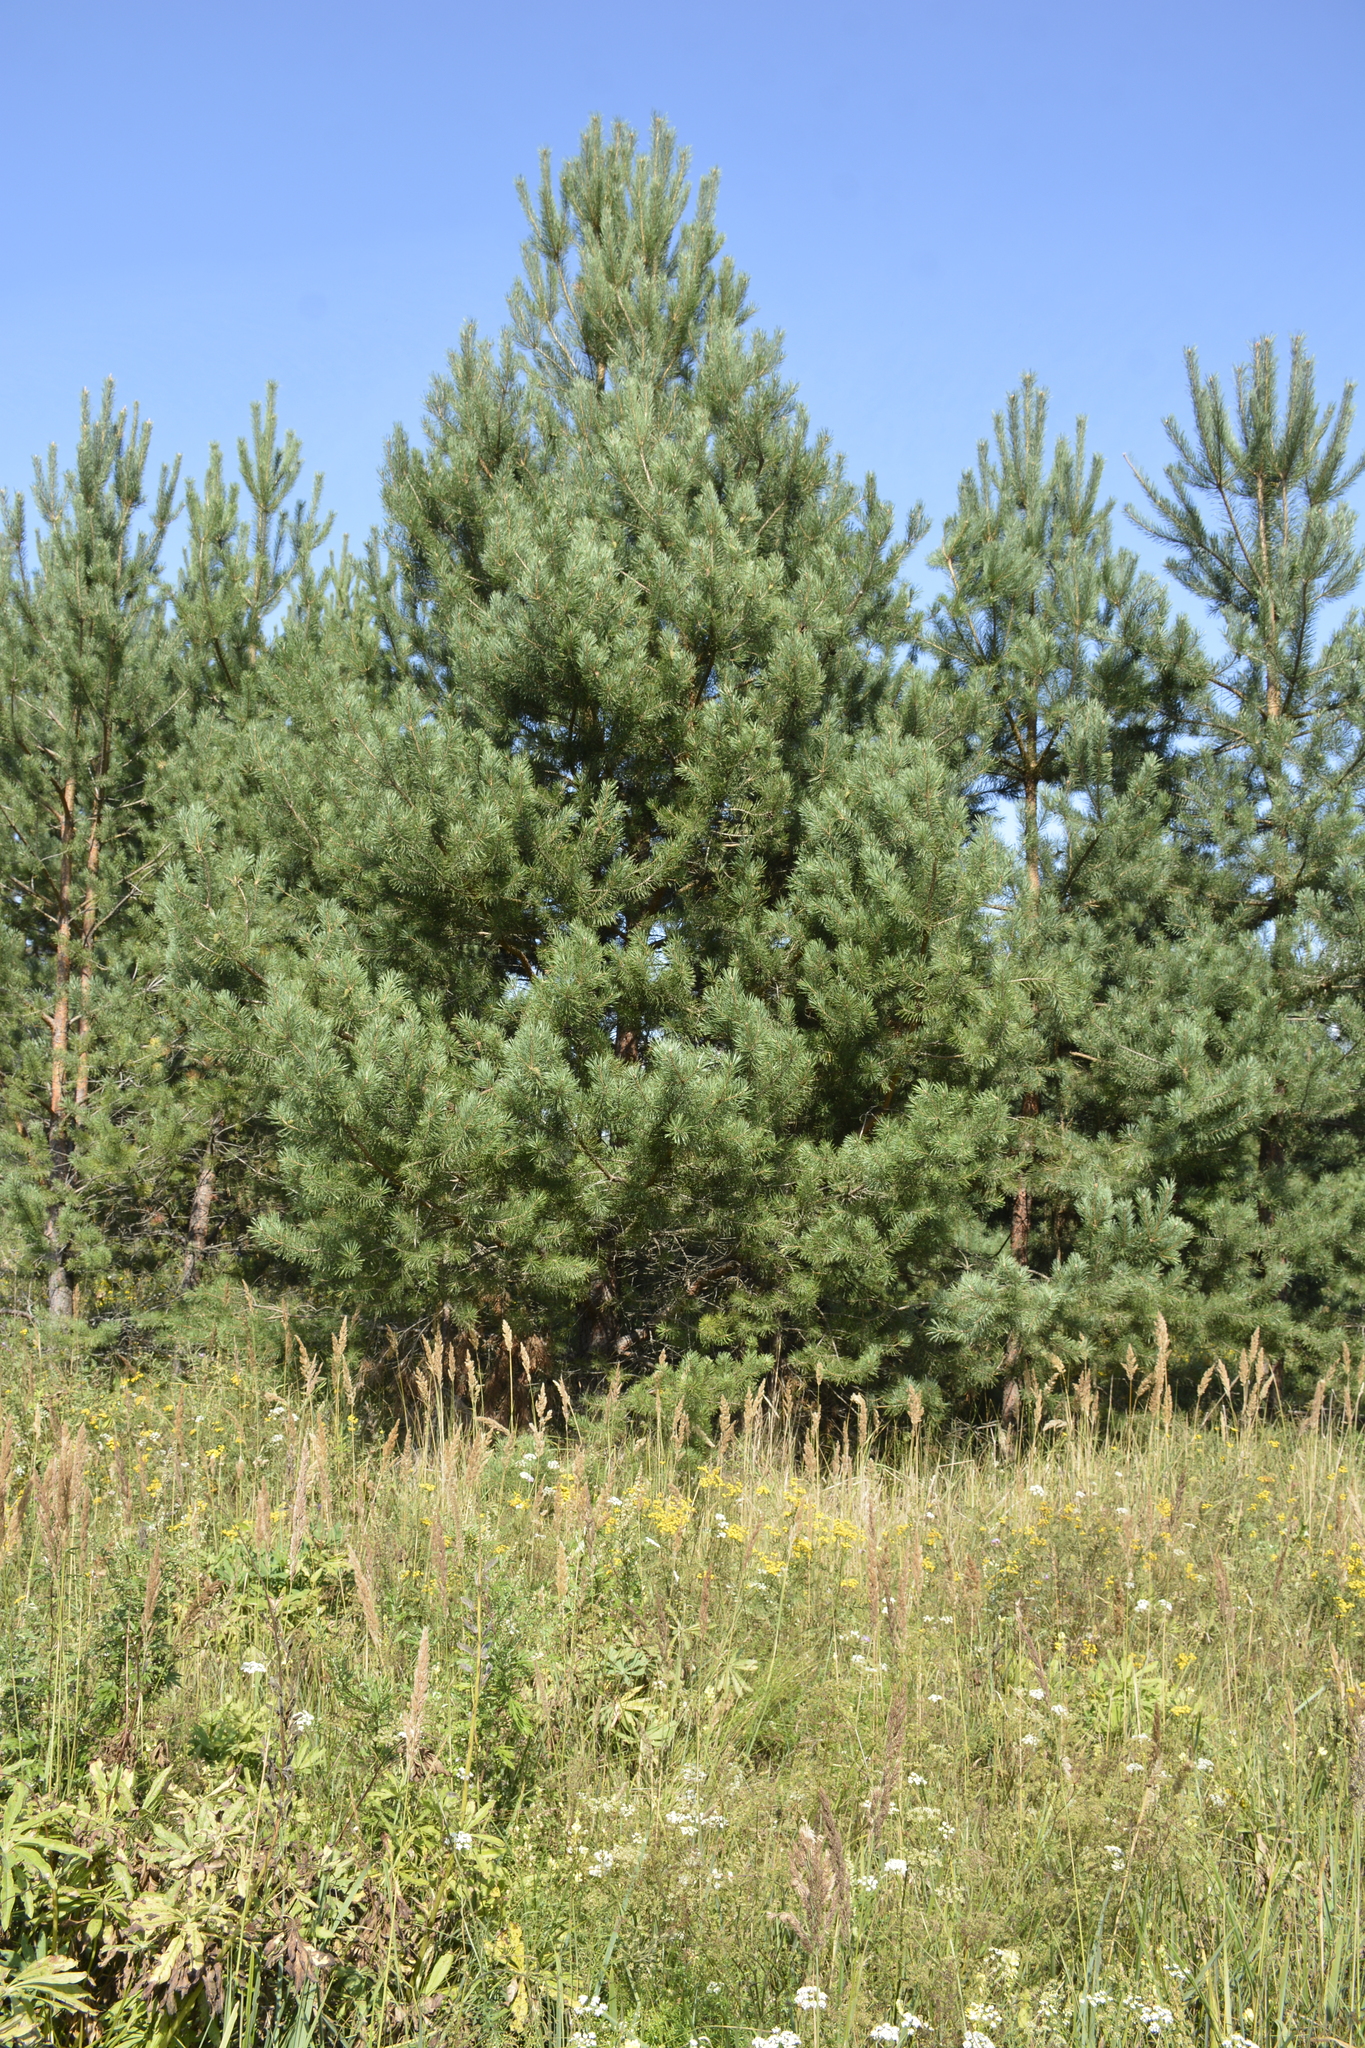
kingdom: Plantae
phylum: Tracheophyta
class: Pinopsida
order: Pinales
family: Pinaceae
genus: Pinus
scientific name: Pinus sylvestris
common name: Scots pine
